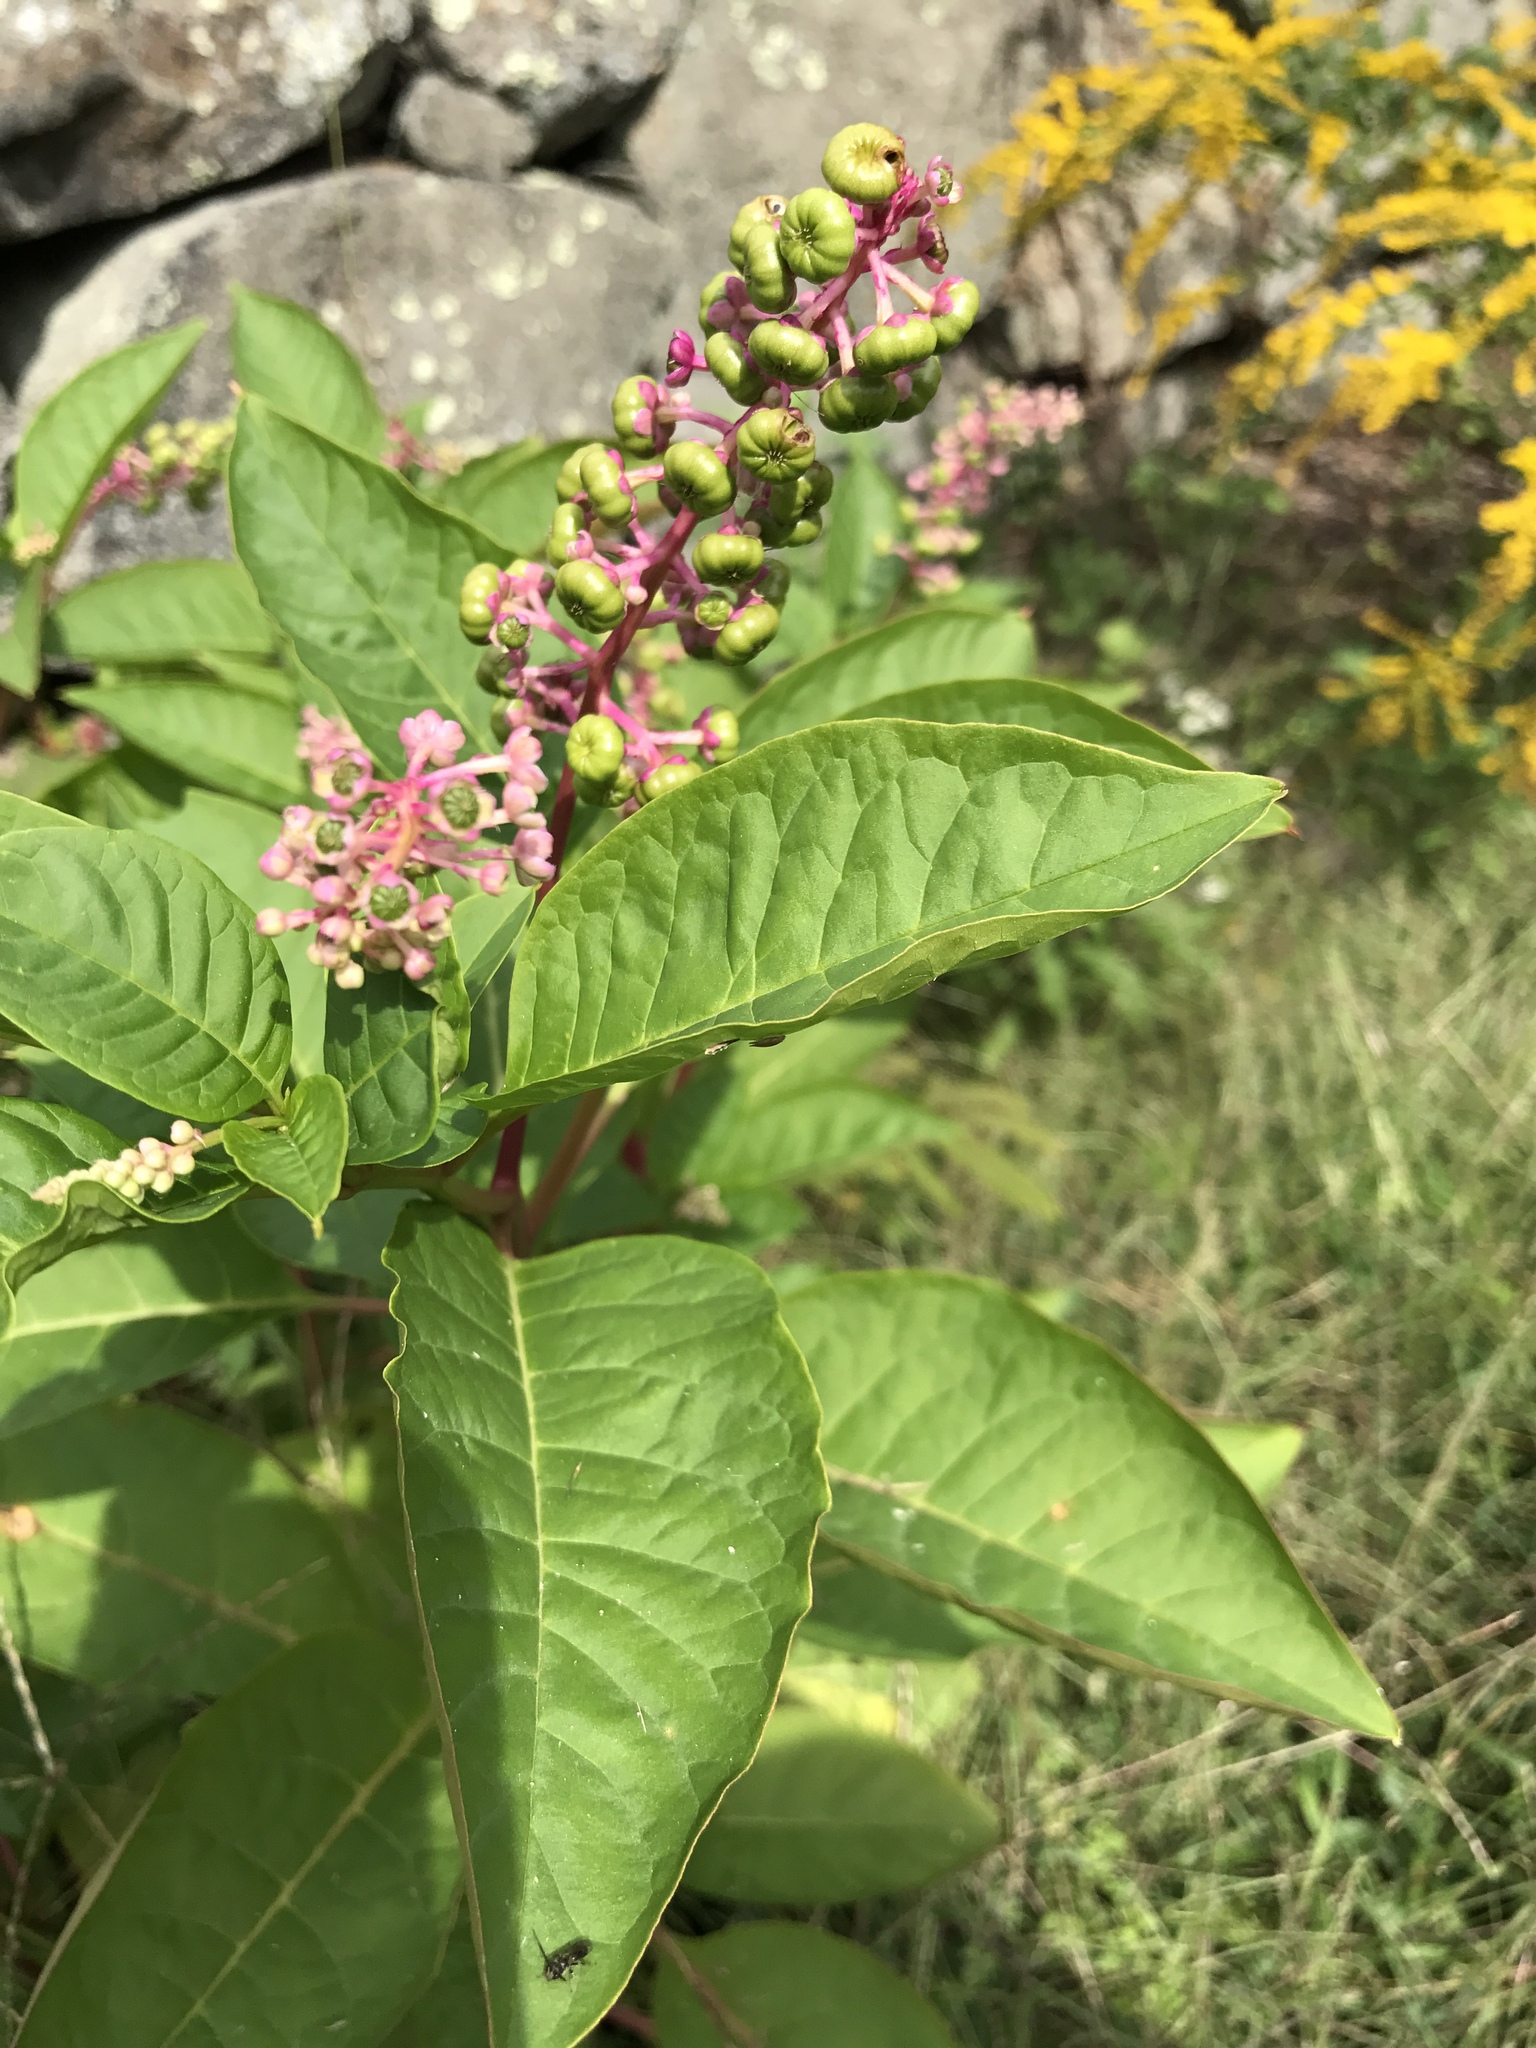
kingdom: Plantae
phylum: Tracheophyta
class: Magnoliopsida
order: Caryophyllales
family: Phytolaccaceae
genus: Phytolacca
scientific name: Phytolacca americana
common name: American pokeweed
